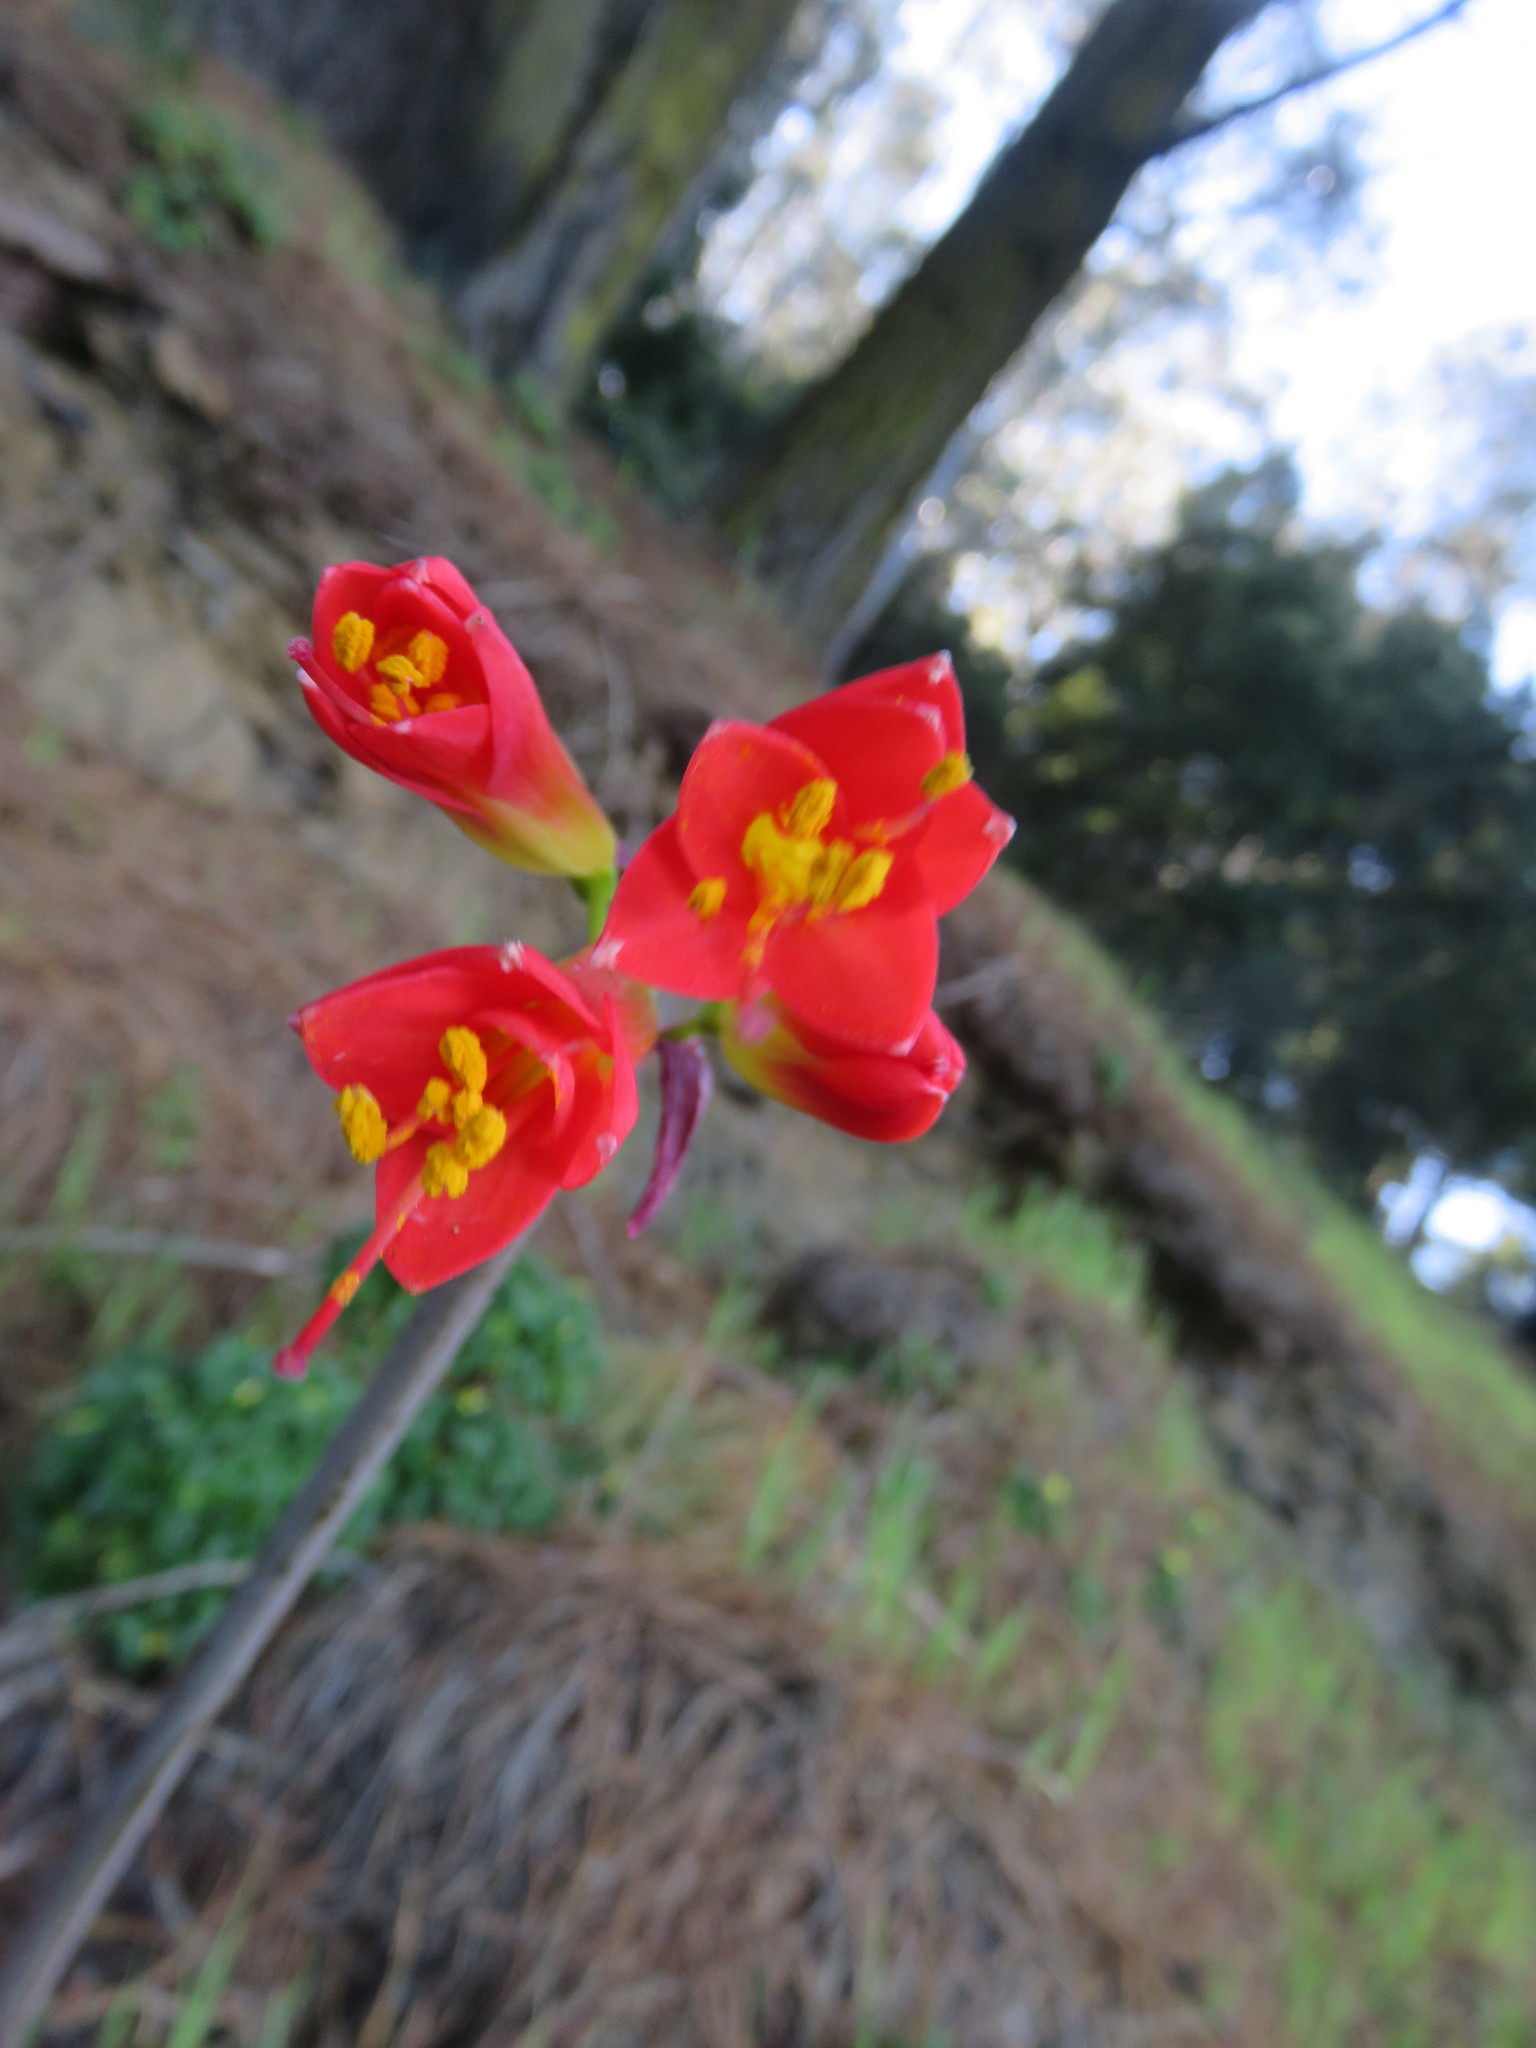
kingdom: Plantae
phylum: Tracheophyta
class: Liliopsida
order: Asparagales
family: Amaryllidaceae
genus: Phycella
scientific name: Phycella australis
